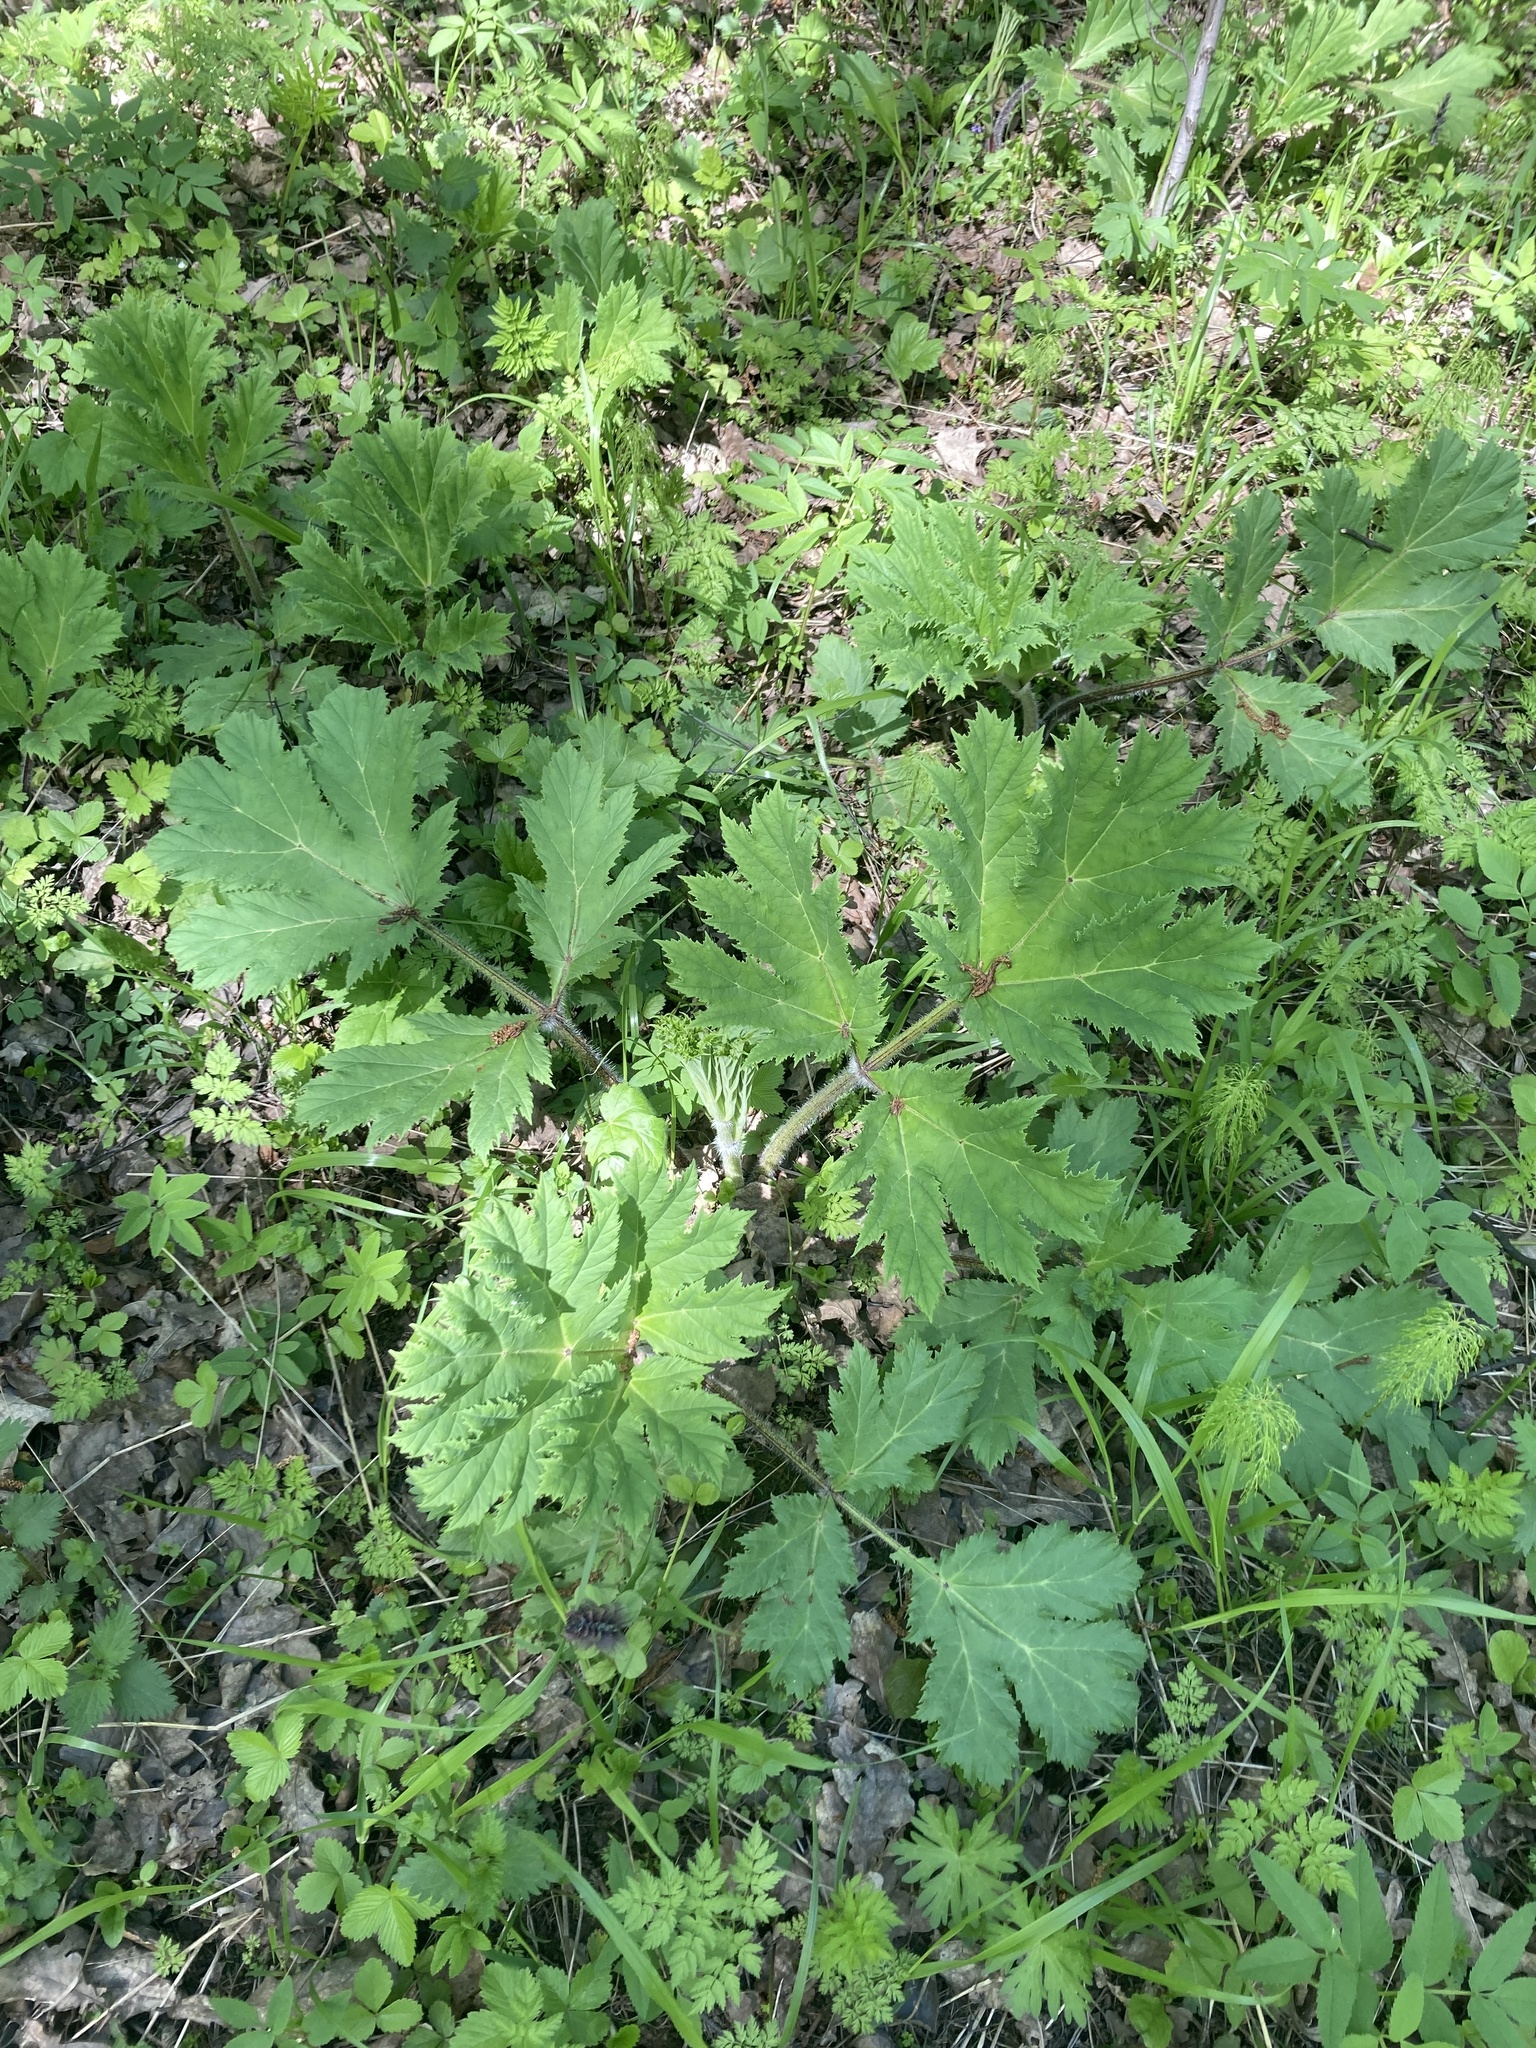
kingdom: Plantae
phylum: Tracheophyta
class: Magnoliopsida
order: Apiales
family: Apiaceae
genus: Heracleum
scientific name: Heracleum sosnowskyi
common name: Sosnowsky's hogweed
